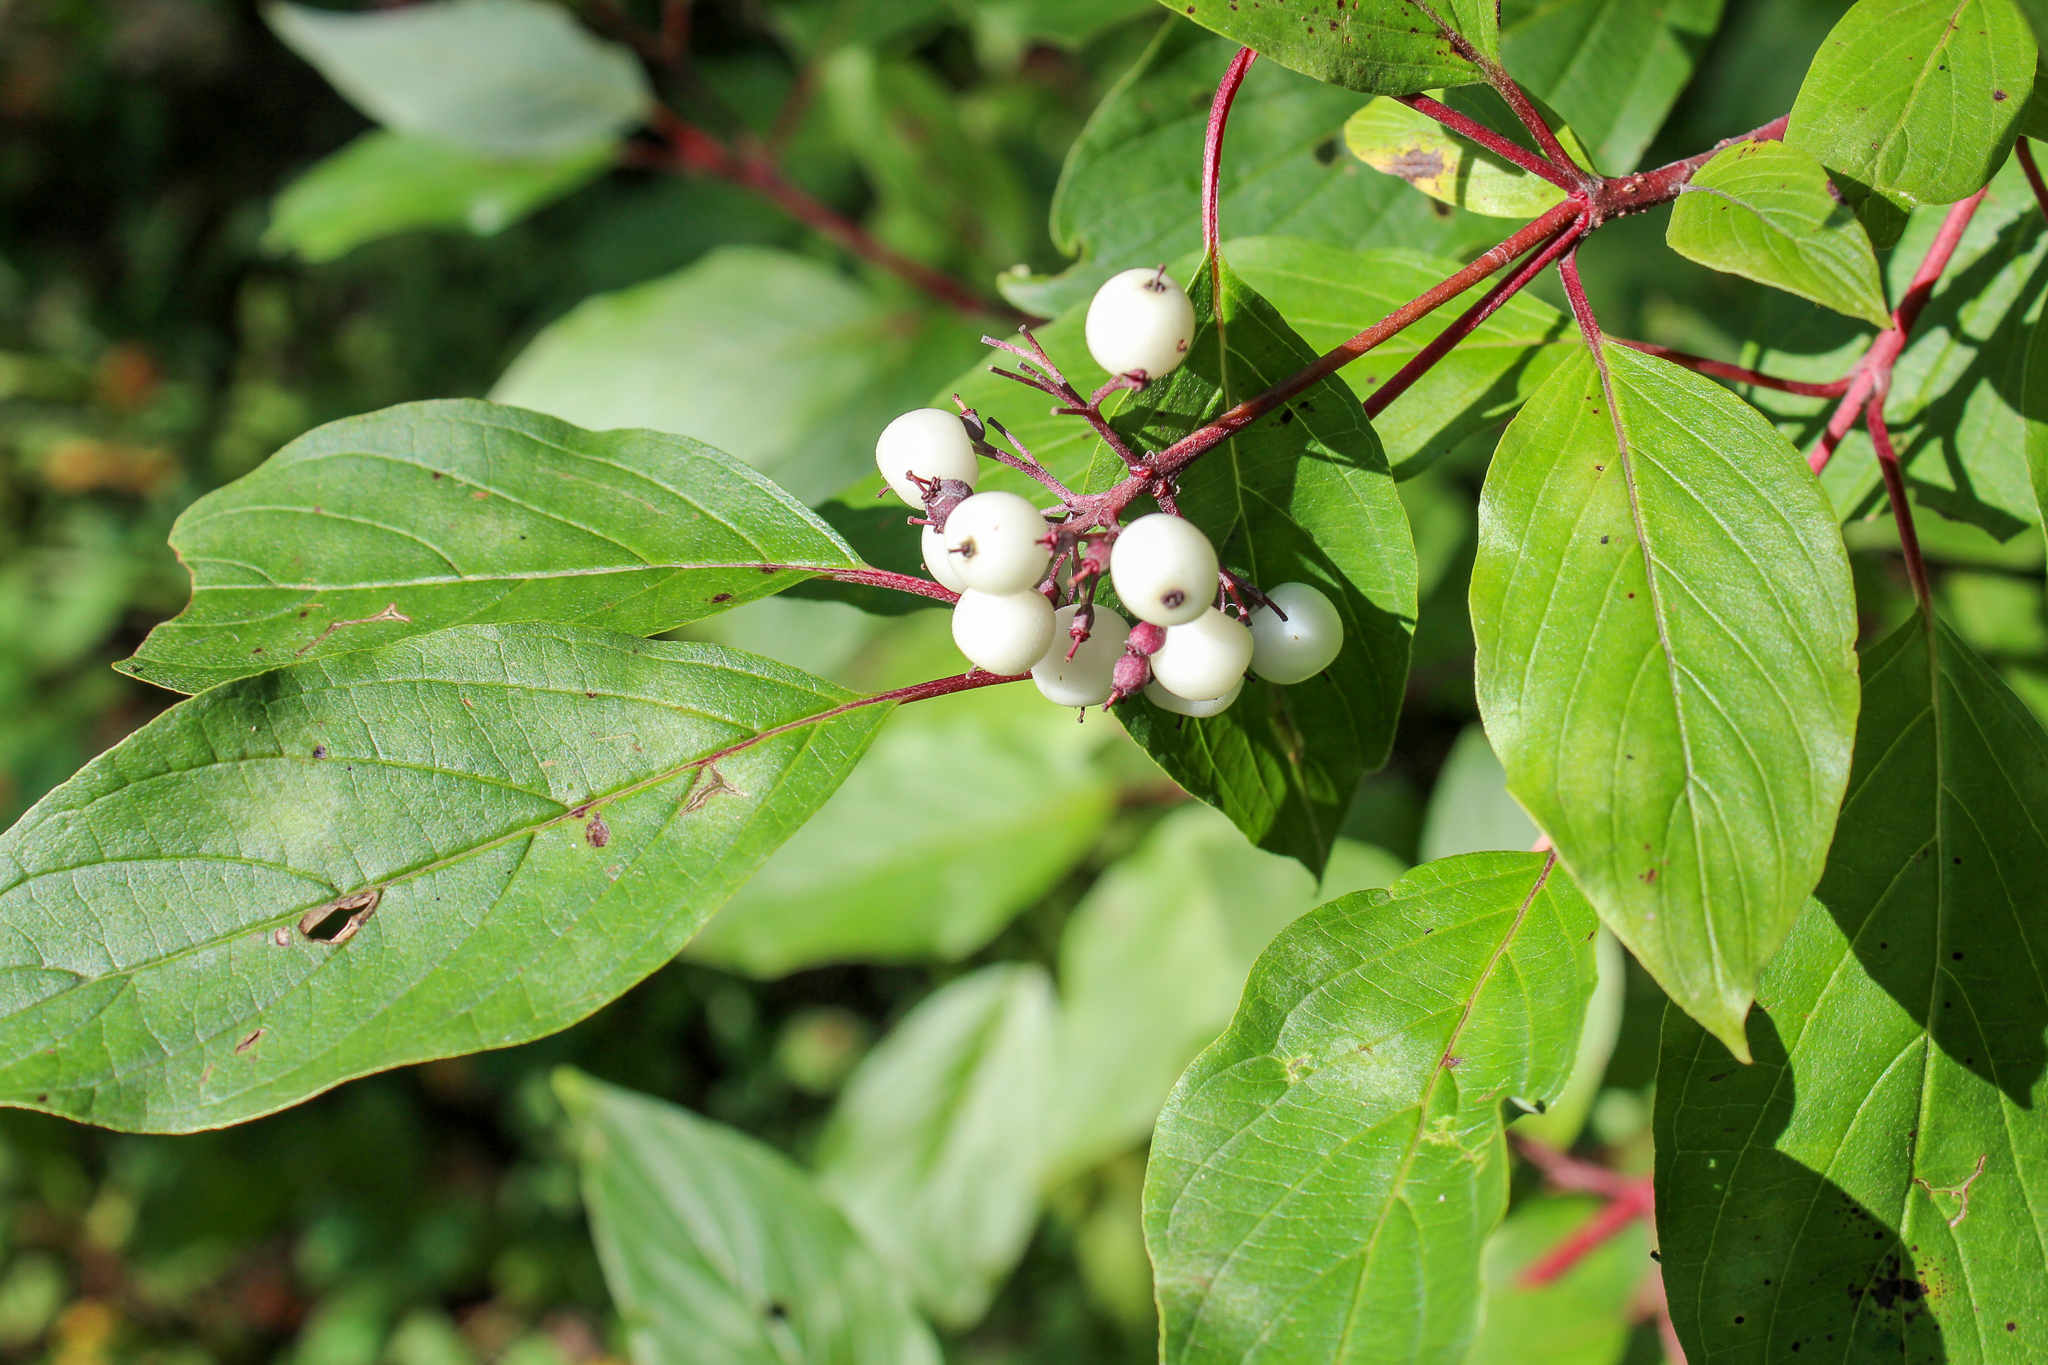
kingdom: Plantae
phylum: Tracheophyta
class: Magnoliopsida
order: Cornales
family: Cornaceae
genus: Cornus
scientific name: Cornus sericea
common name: Red-osier dogwood
